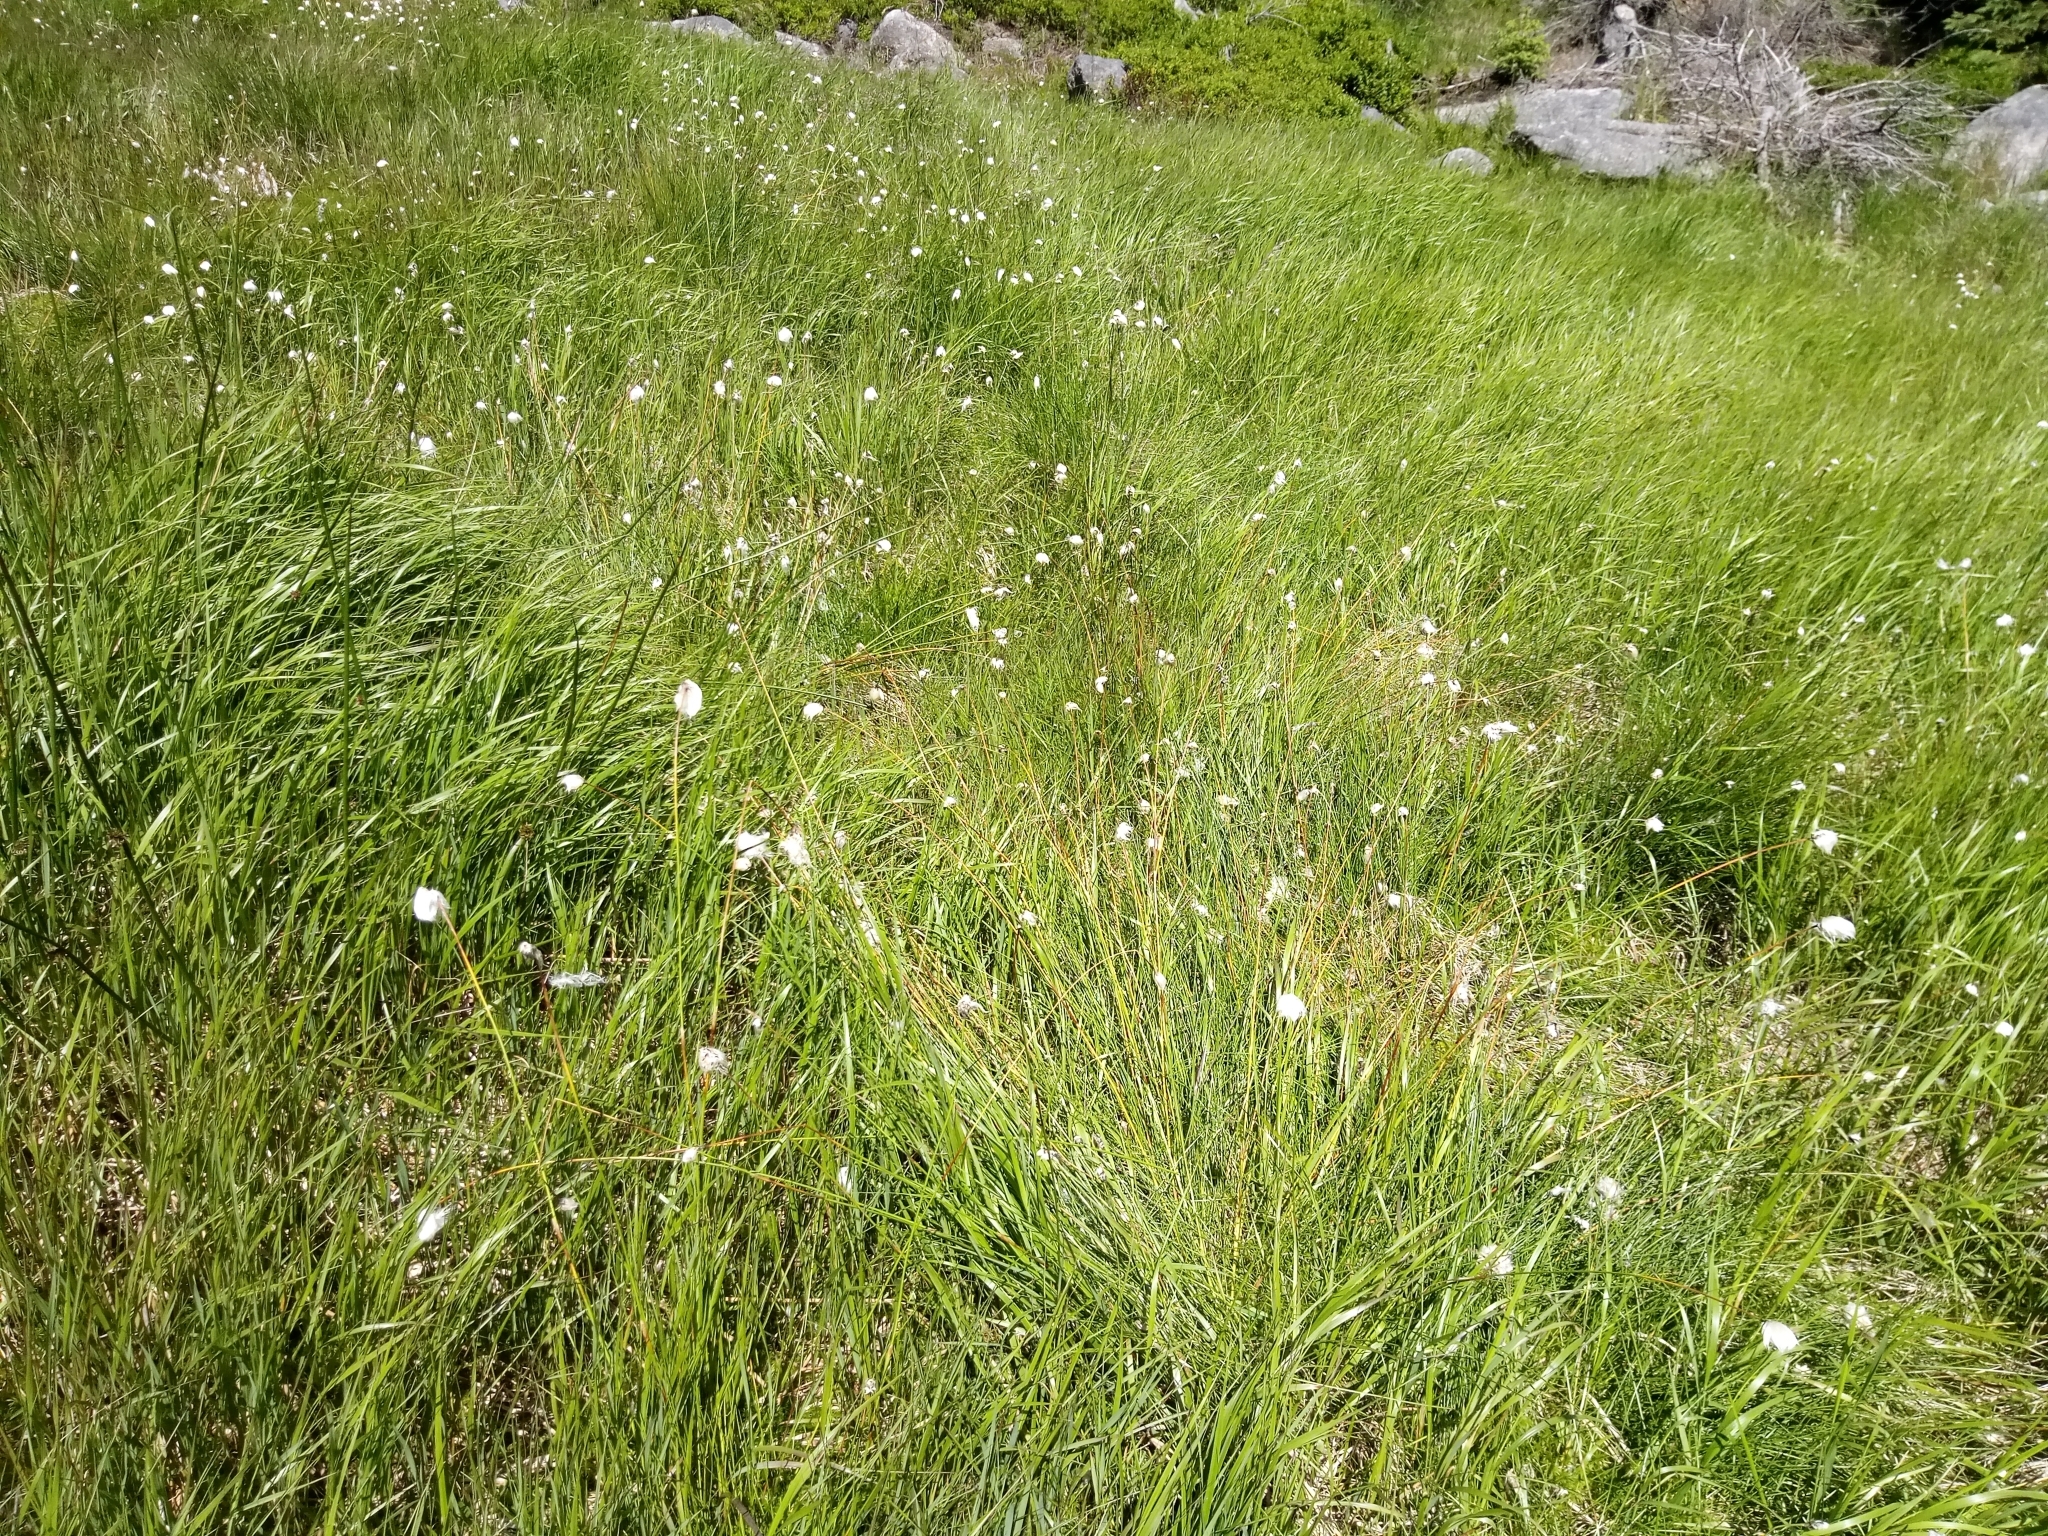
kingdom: Plantae
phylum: Tracheophyta
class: Liliopsida
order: Poales
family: Cyperaceae
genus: Eriophorum
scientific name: Eriophorum vaginatum
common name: Hare's-tail cottongrass
